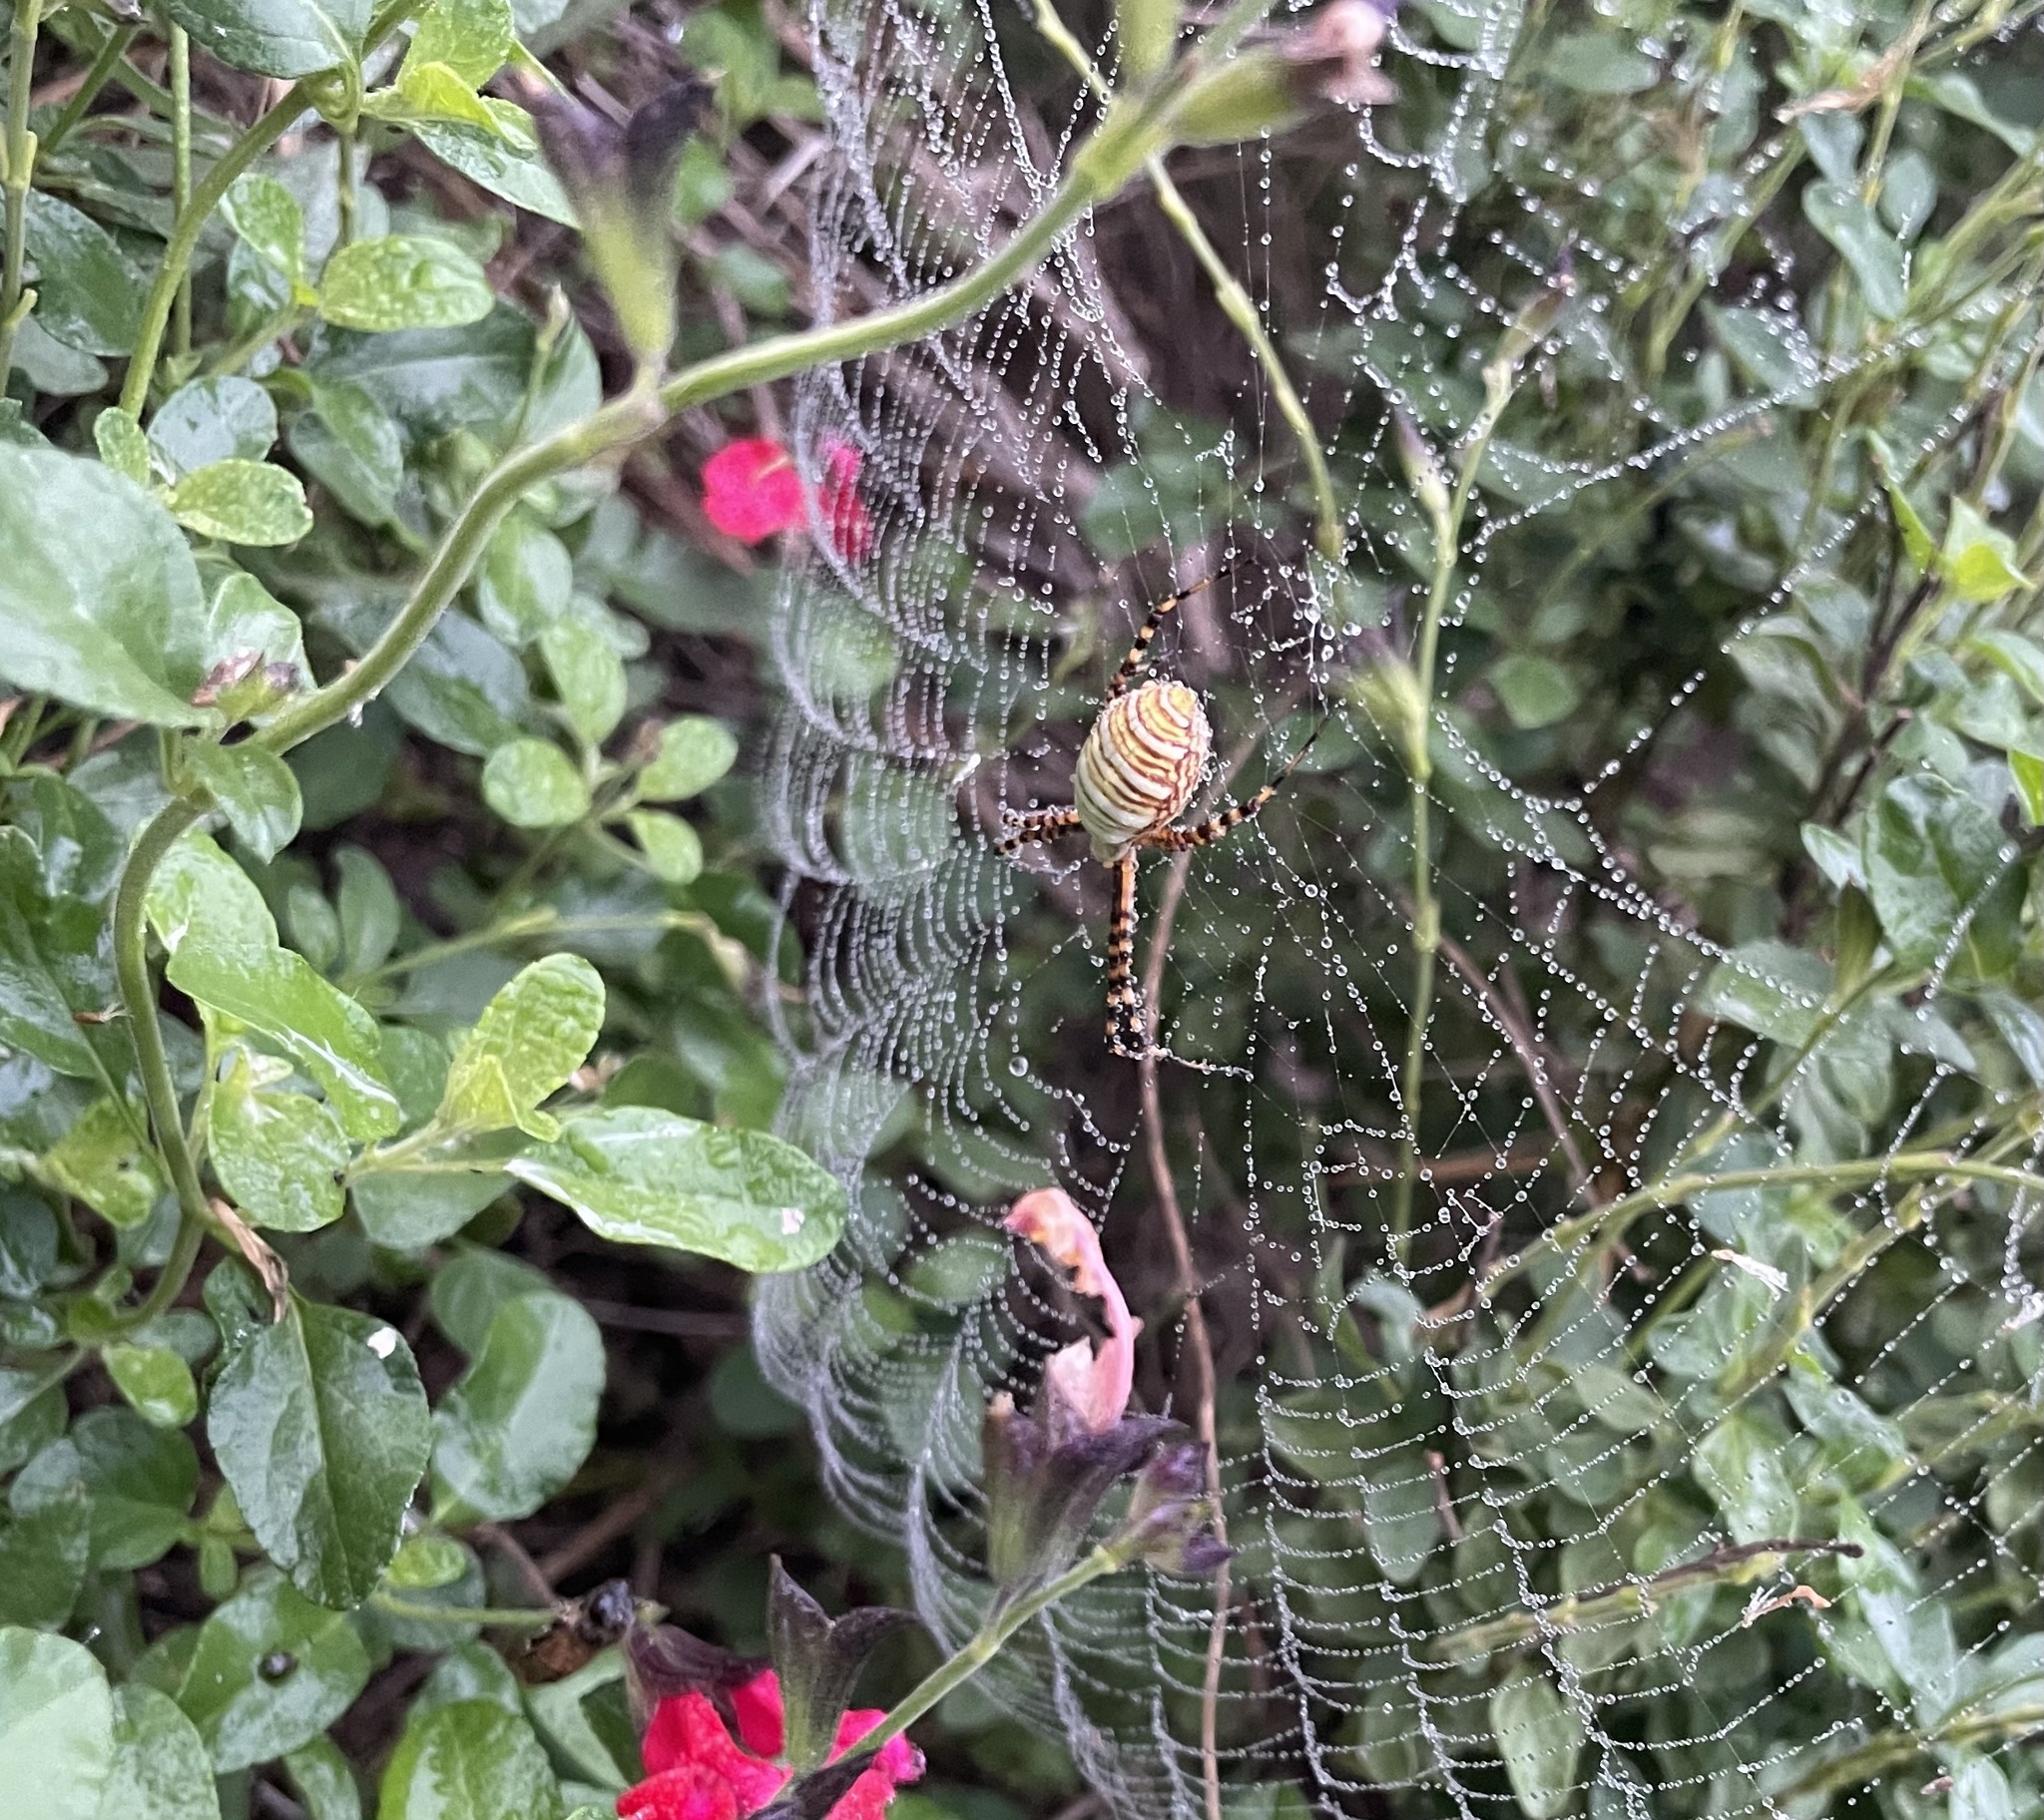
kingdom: Animalia
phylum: Arthropoda
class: Arachnida
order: Araneae
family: Araneidae
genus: Argiope
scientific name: Argiope trifasciata
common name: Banded garden spider
